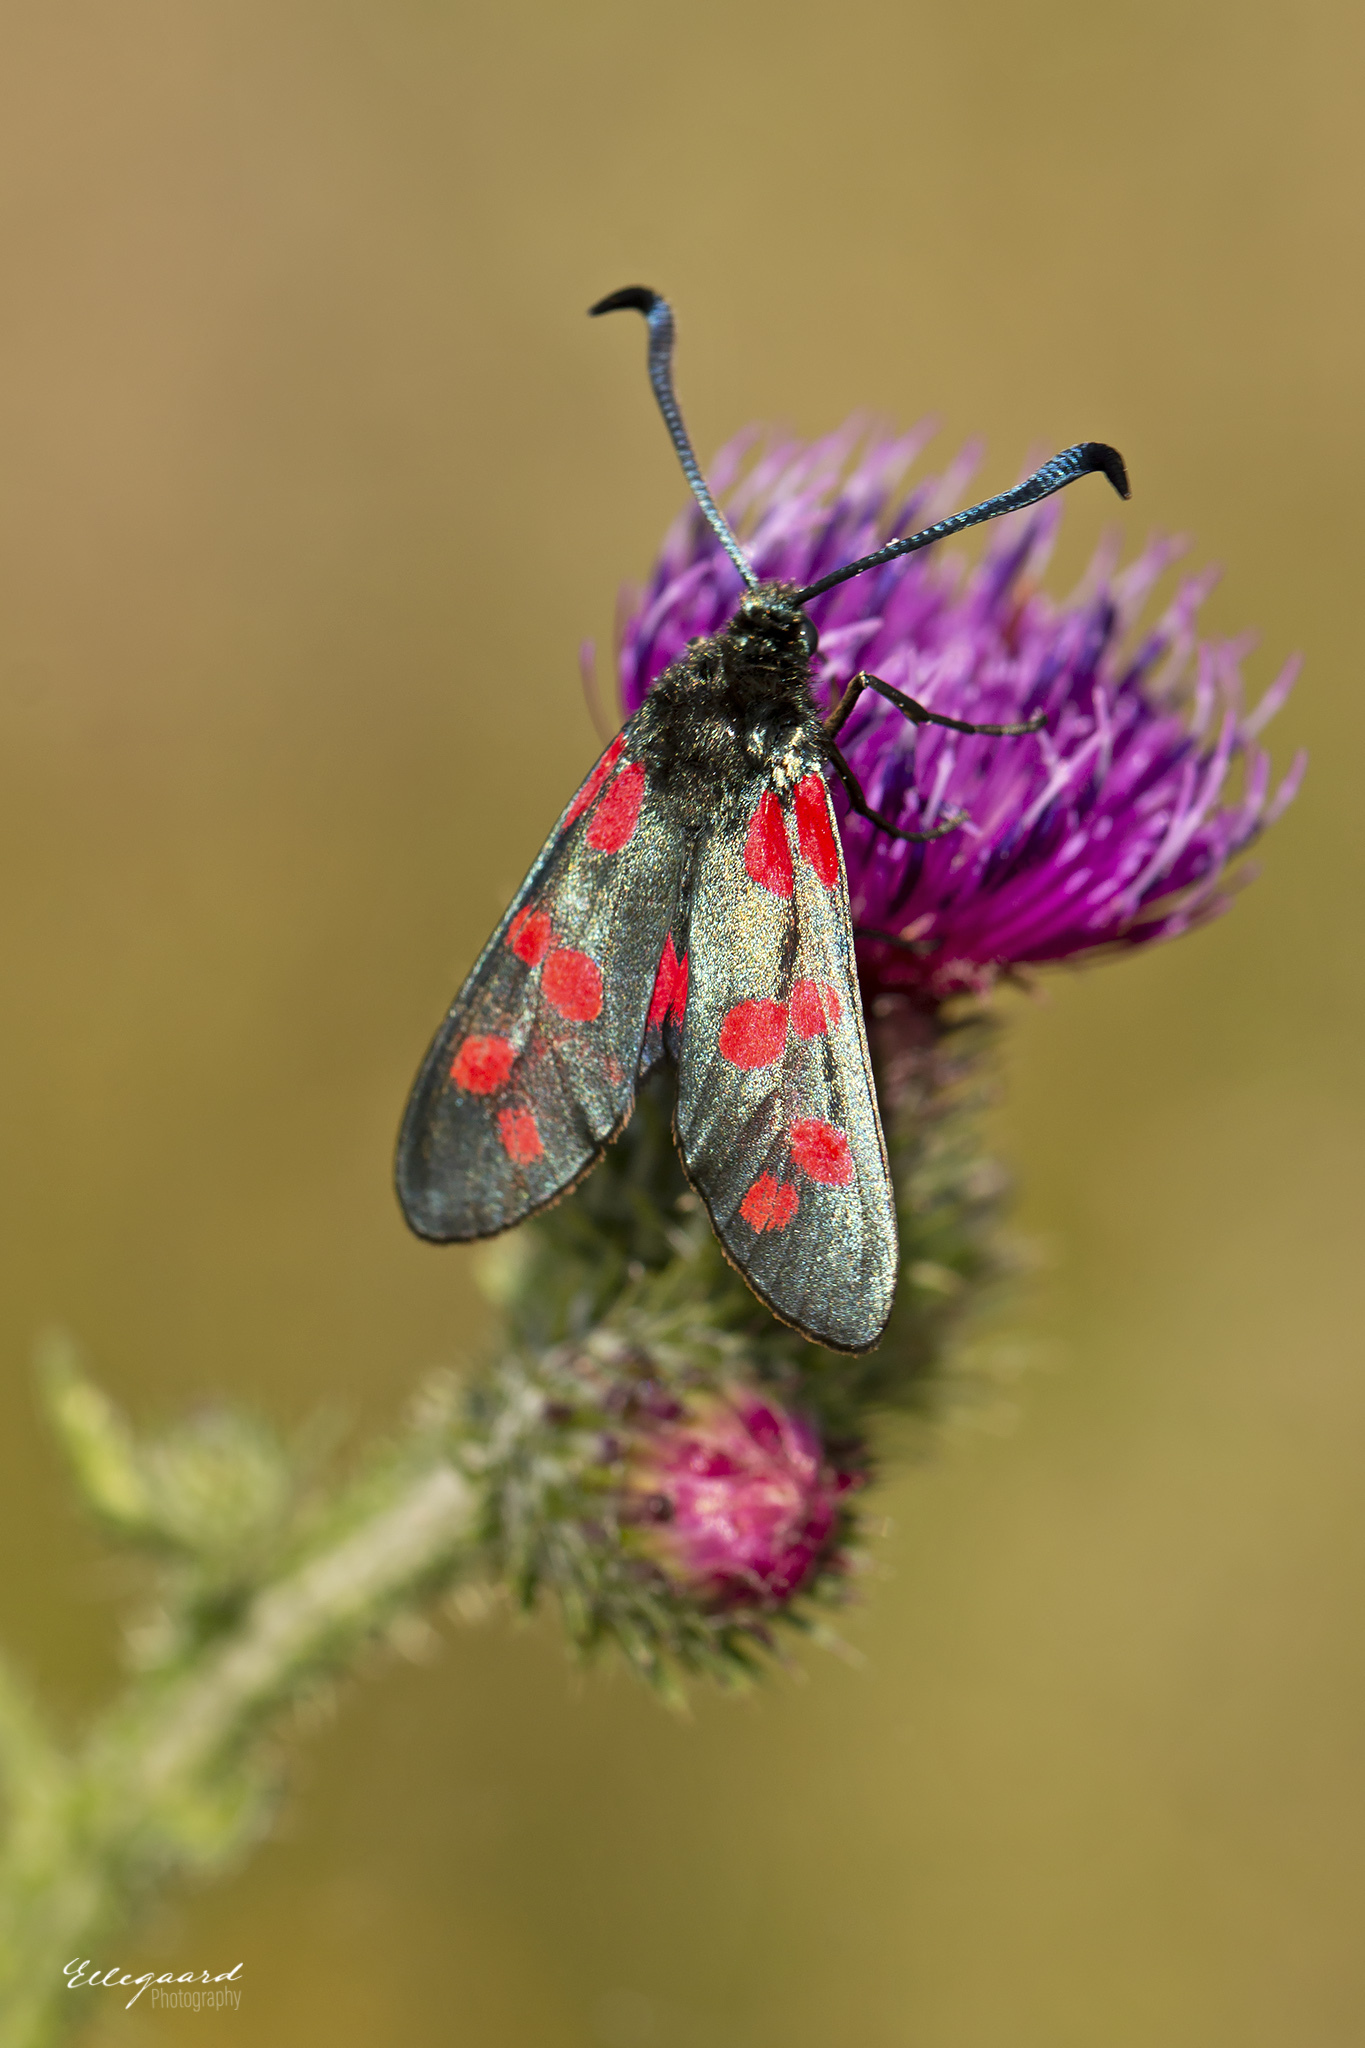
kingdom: Animalia
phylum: Arthropoda
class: Insecta
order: Lepidoptera
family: Zygaenidae
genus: Zygaena
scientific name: Zygaena filipendulae
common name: Six-spot burnet
